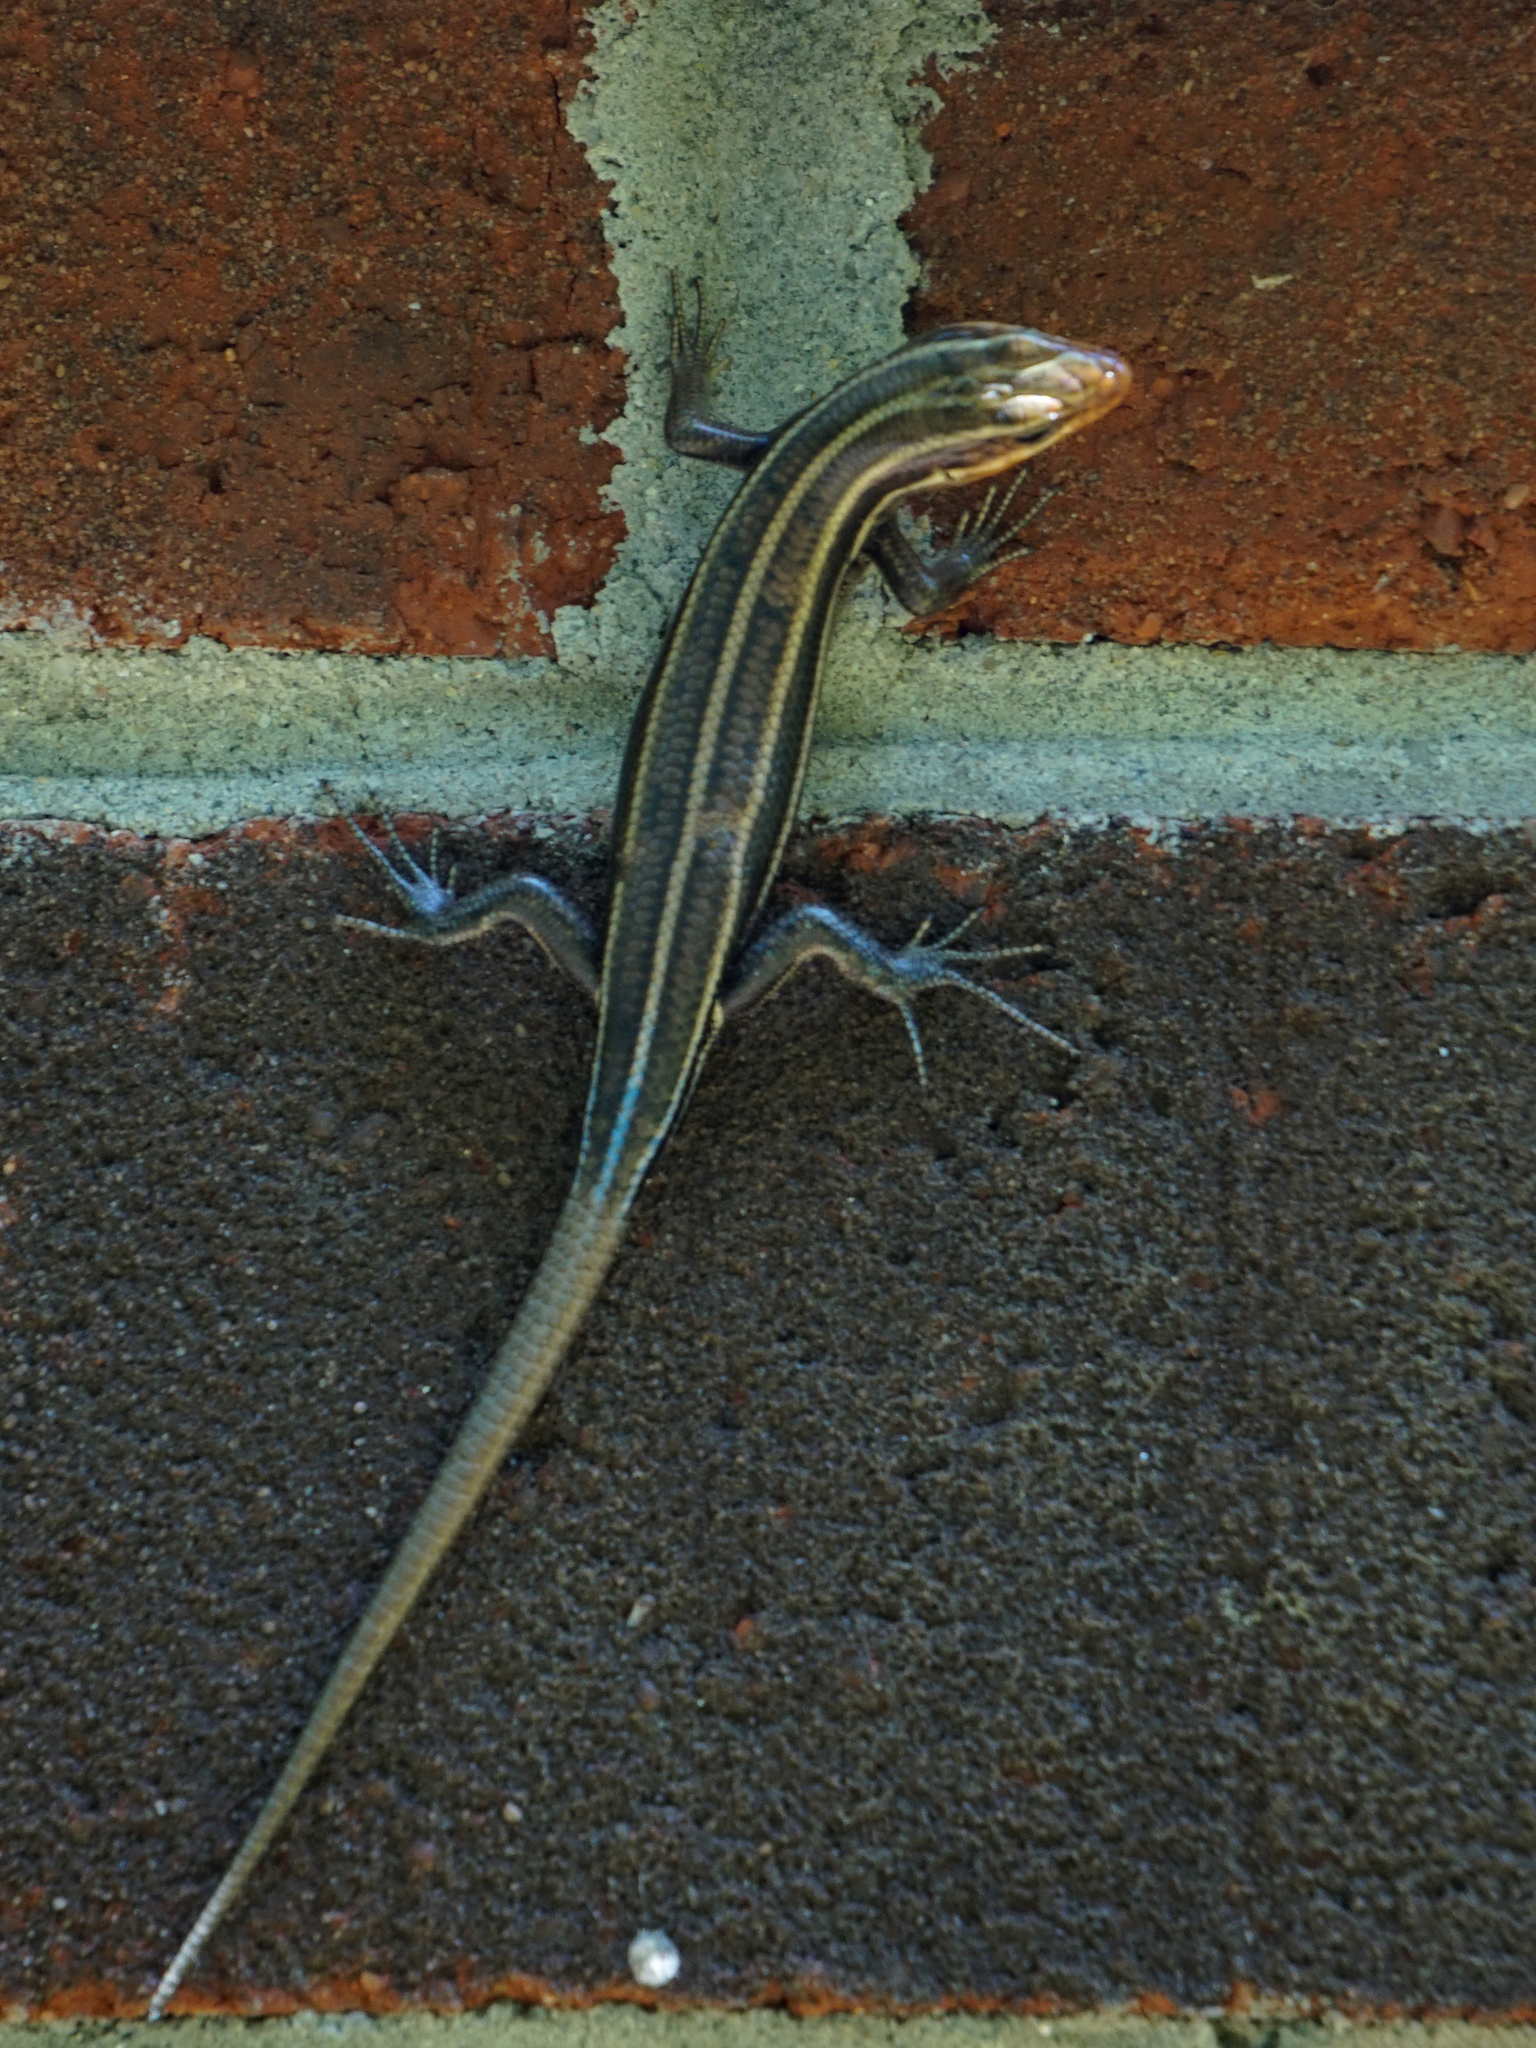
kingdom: Animalia
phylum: Chordata
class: Squamata
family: Scincidae
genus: Plestiodon
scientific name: Plestiodon fasciatus
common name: Five-lined skink
